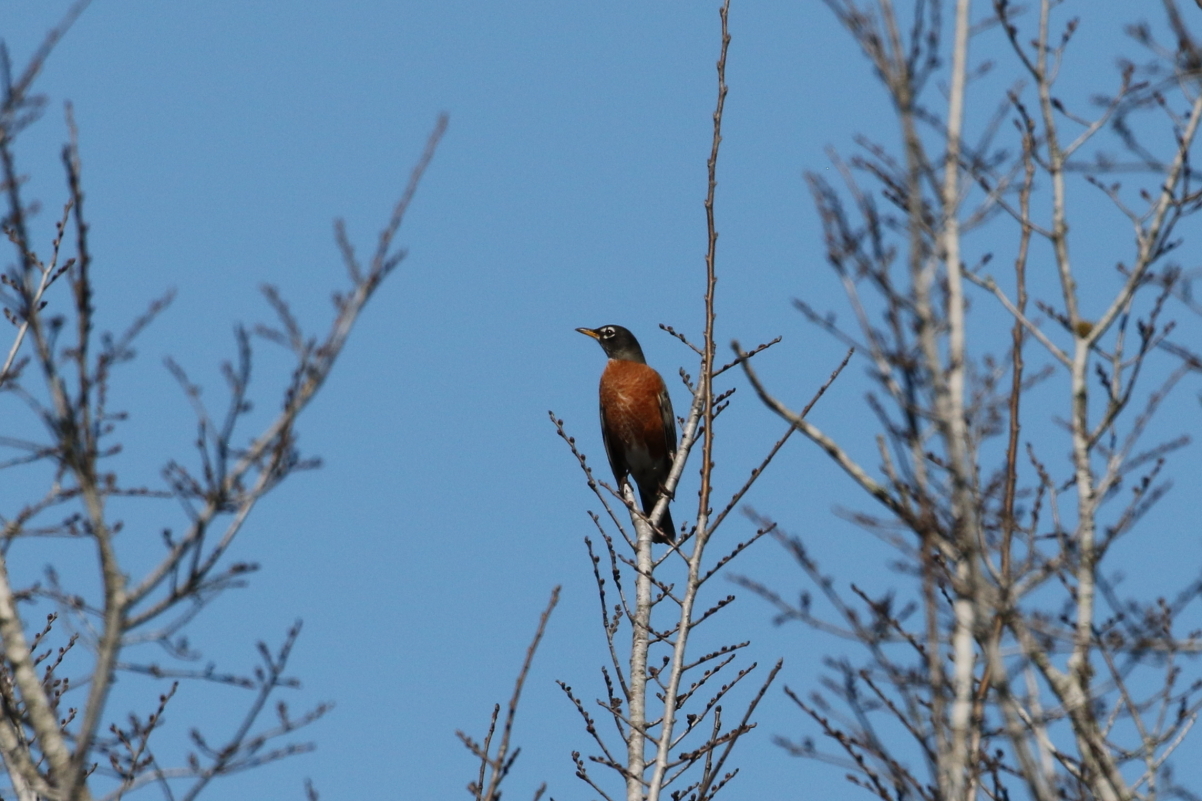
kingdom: Animalia
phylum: Chordata
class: Aves
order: Passeriformes
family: Turdidae
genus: Turdus
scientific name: Turdus migratorius
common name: American robin
